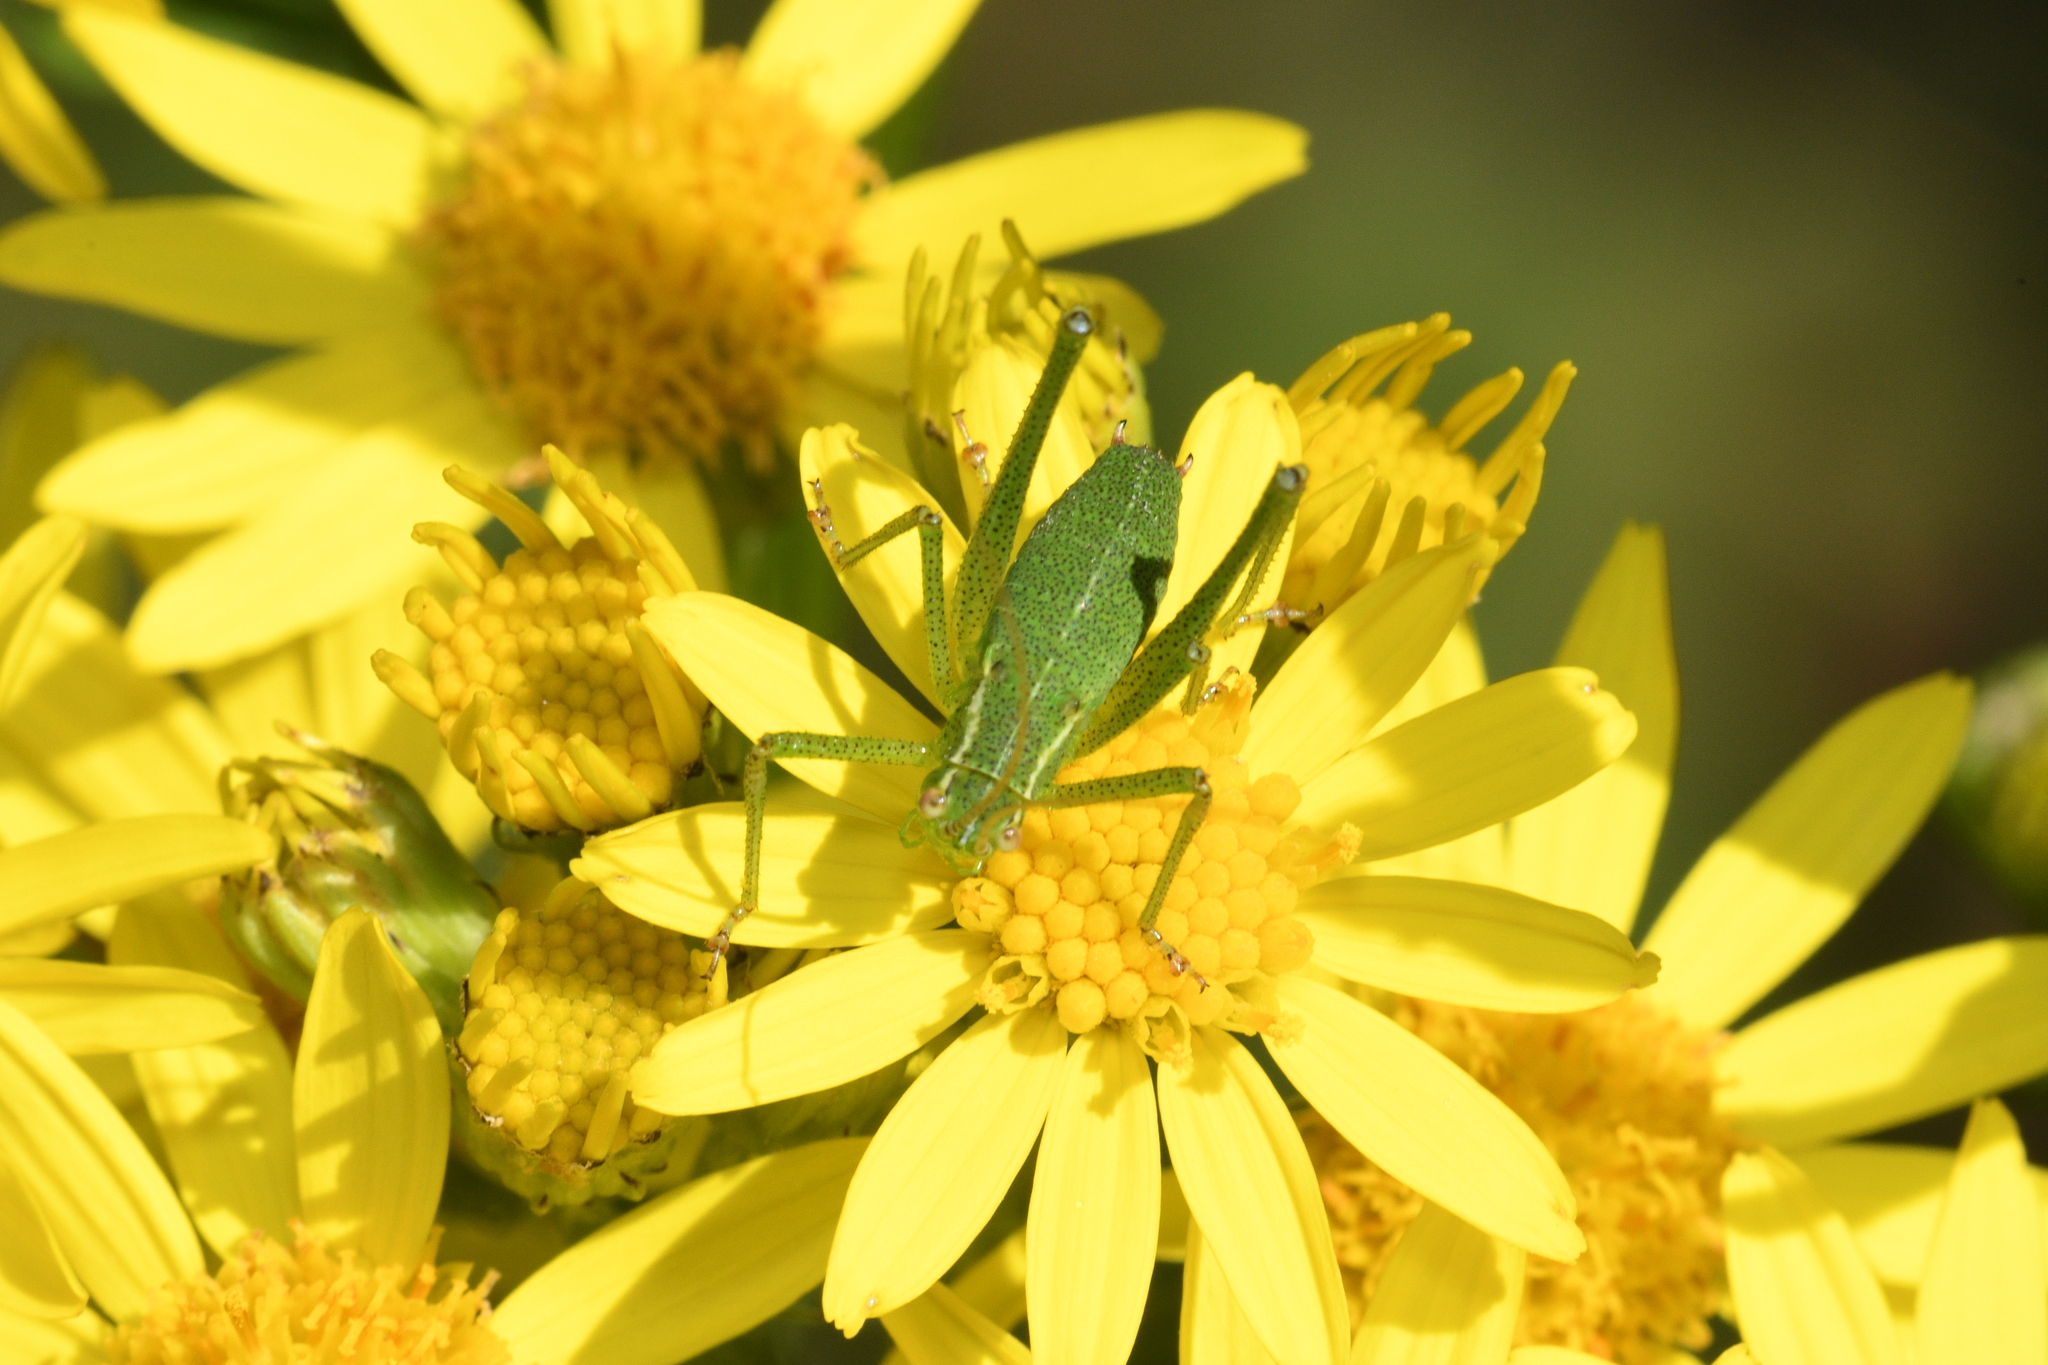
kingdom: Animalia
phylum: Arthropoda
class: Insecta
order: Orthoptera
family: Tettigoniidae
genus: Leptophyes
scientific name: Leptophyes punctatissima
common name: Speckled bush-cricket
